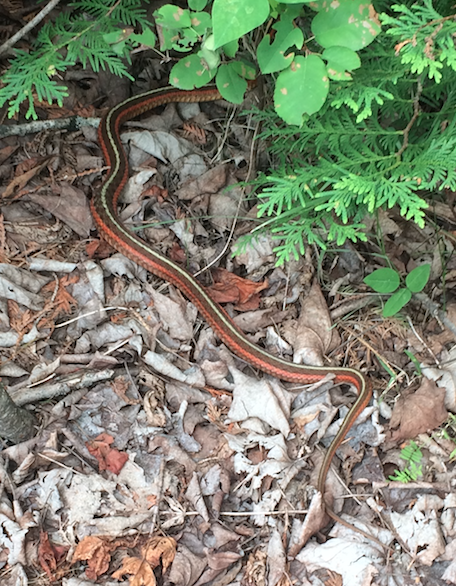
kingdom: Animalia
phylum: Chordata
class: Squamata
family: Colubridae
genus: Thamnophis
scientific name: Thamnophis sirtalis
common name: Common garter snake
